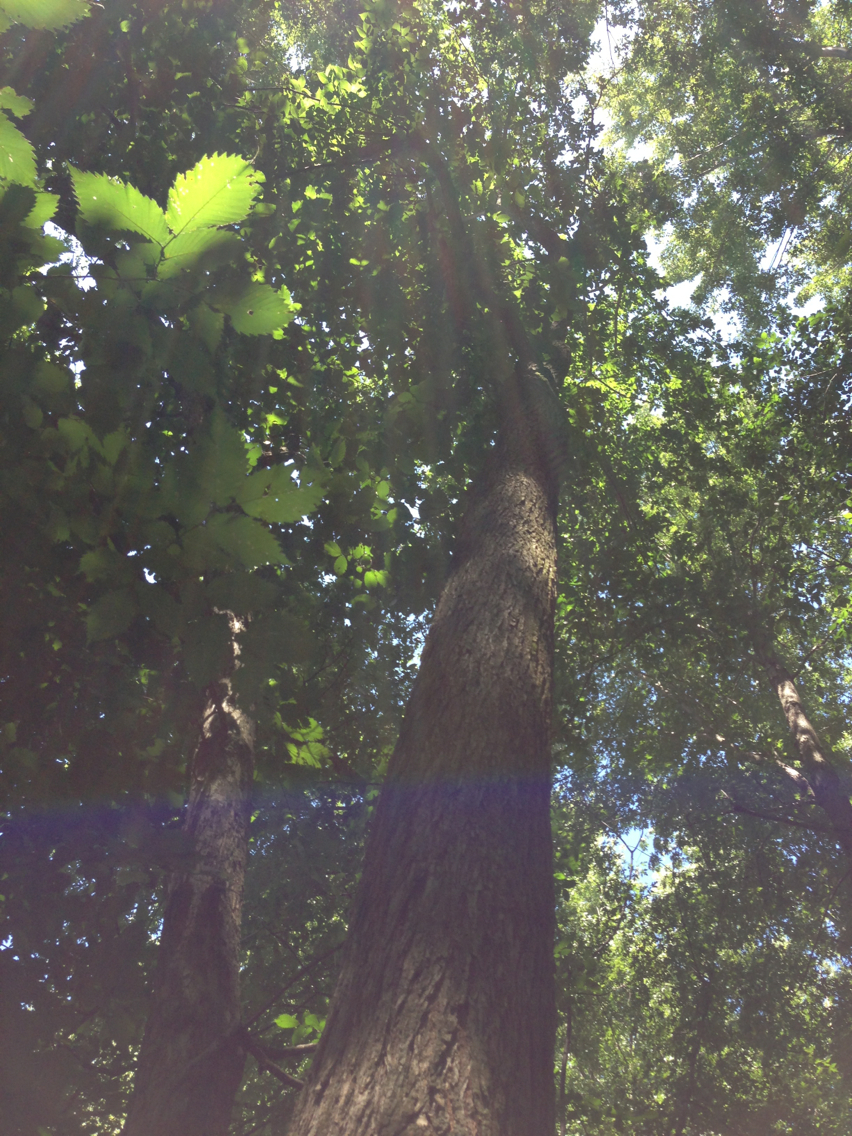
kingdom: Plantae
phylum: Tracheophyta
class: Magnoliopsida
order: Rosales
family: Ulmaceae
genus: Ulmus
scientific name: Ulmus americana
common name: American elm
